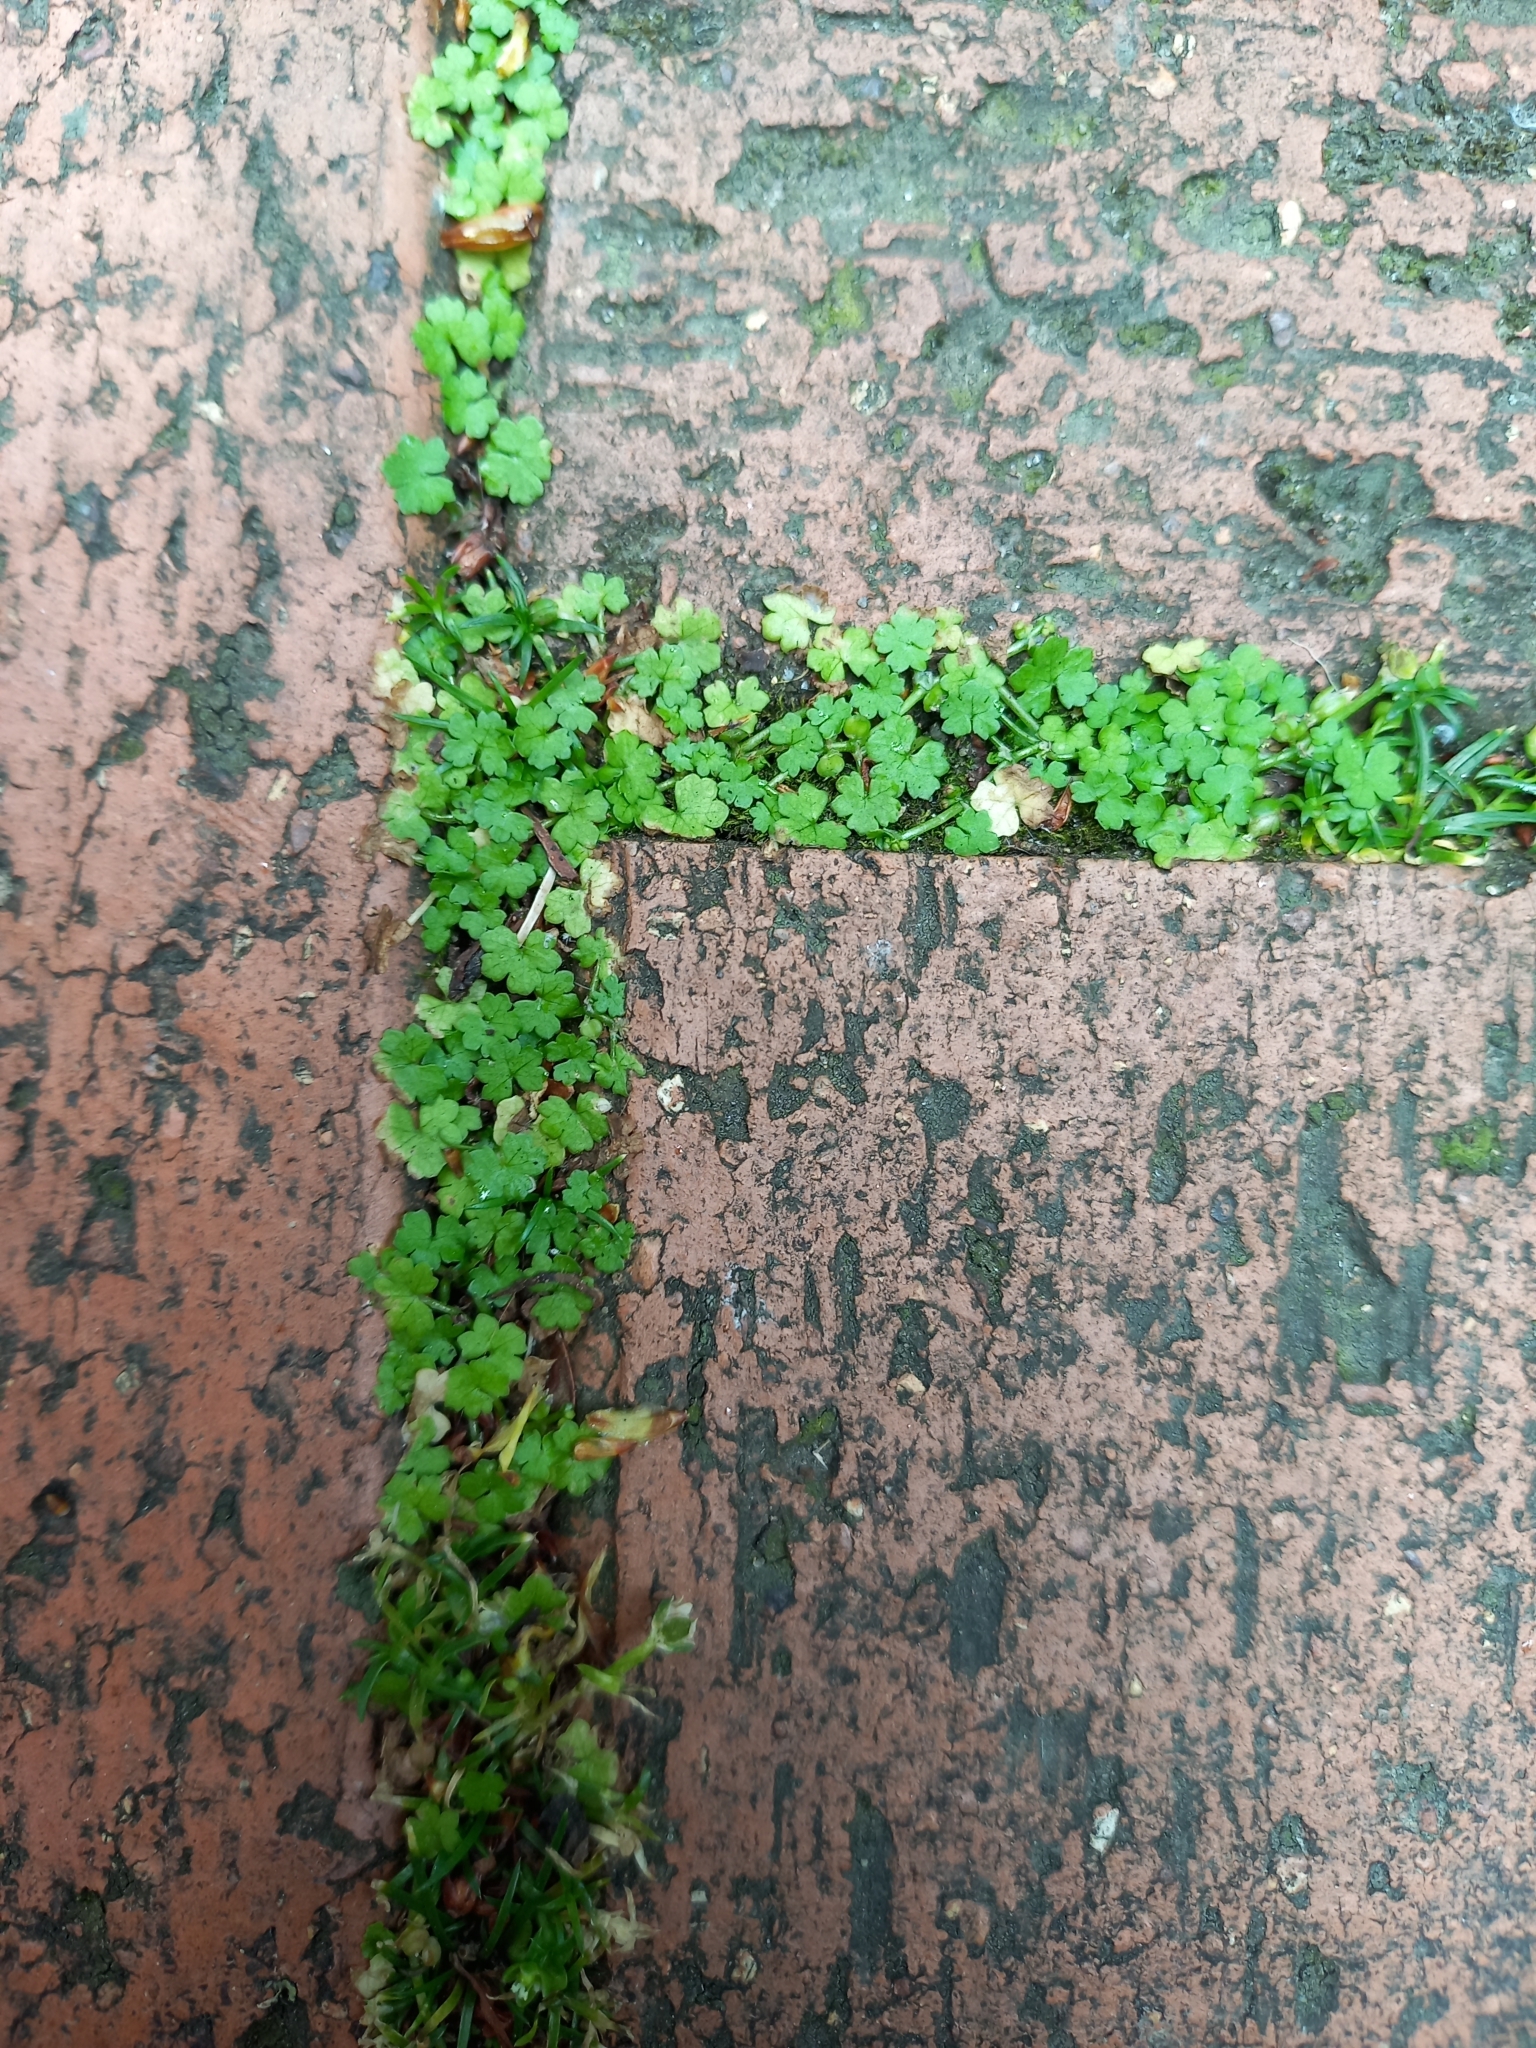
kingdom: Plantae
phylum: Tracheophyta
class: Magnoliopsida
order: Apiales
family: Araliaceae
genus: Hydrocotyle
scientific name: Hydrocotyle heteromeria
